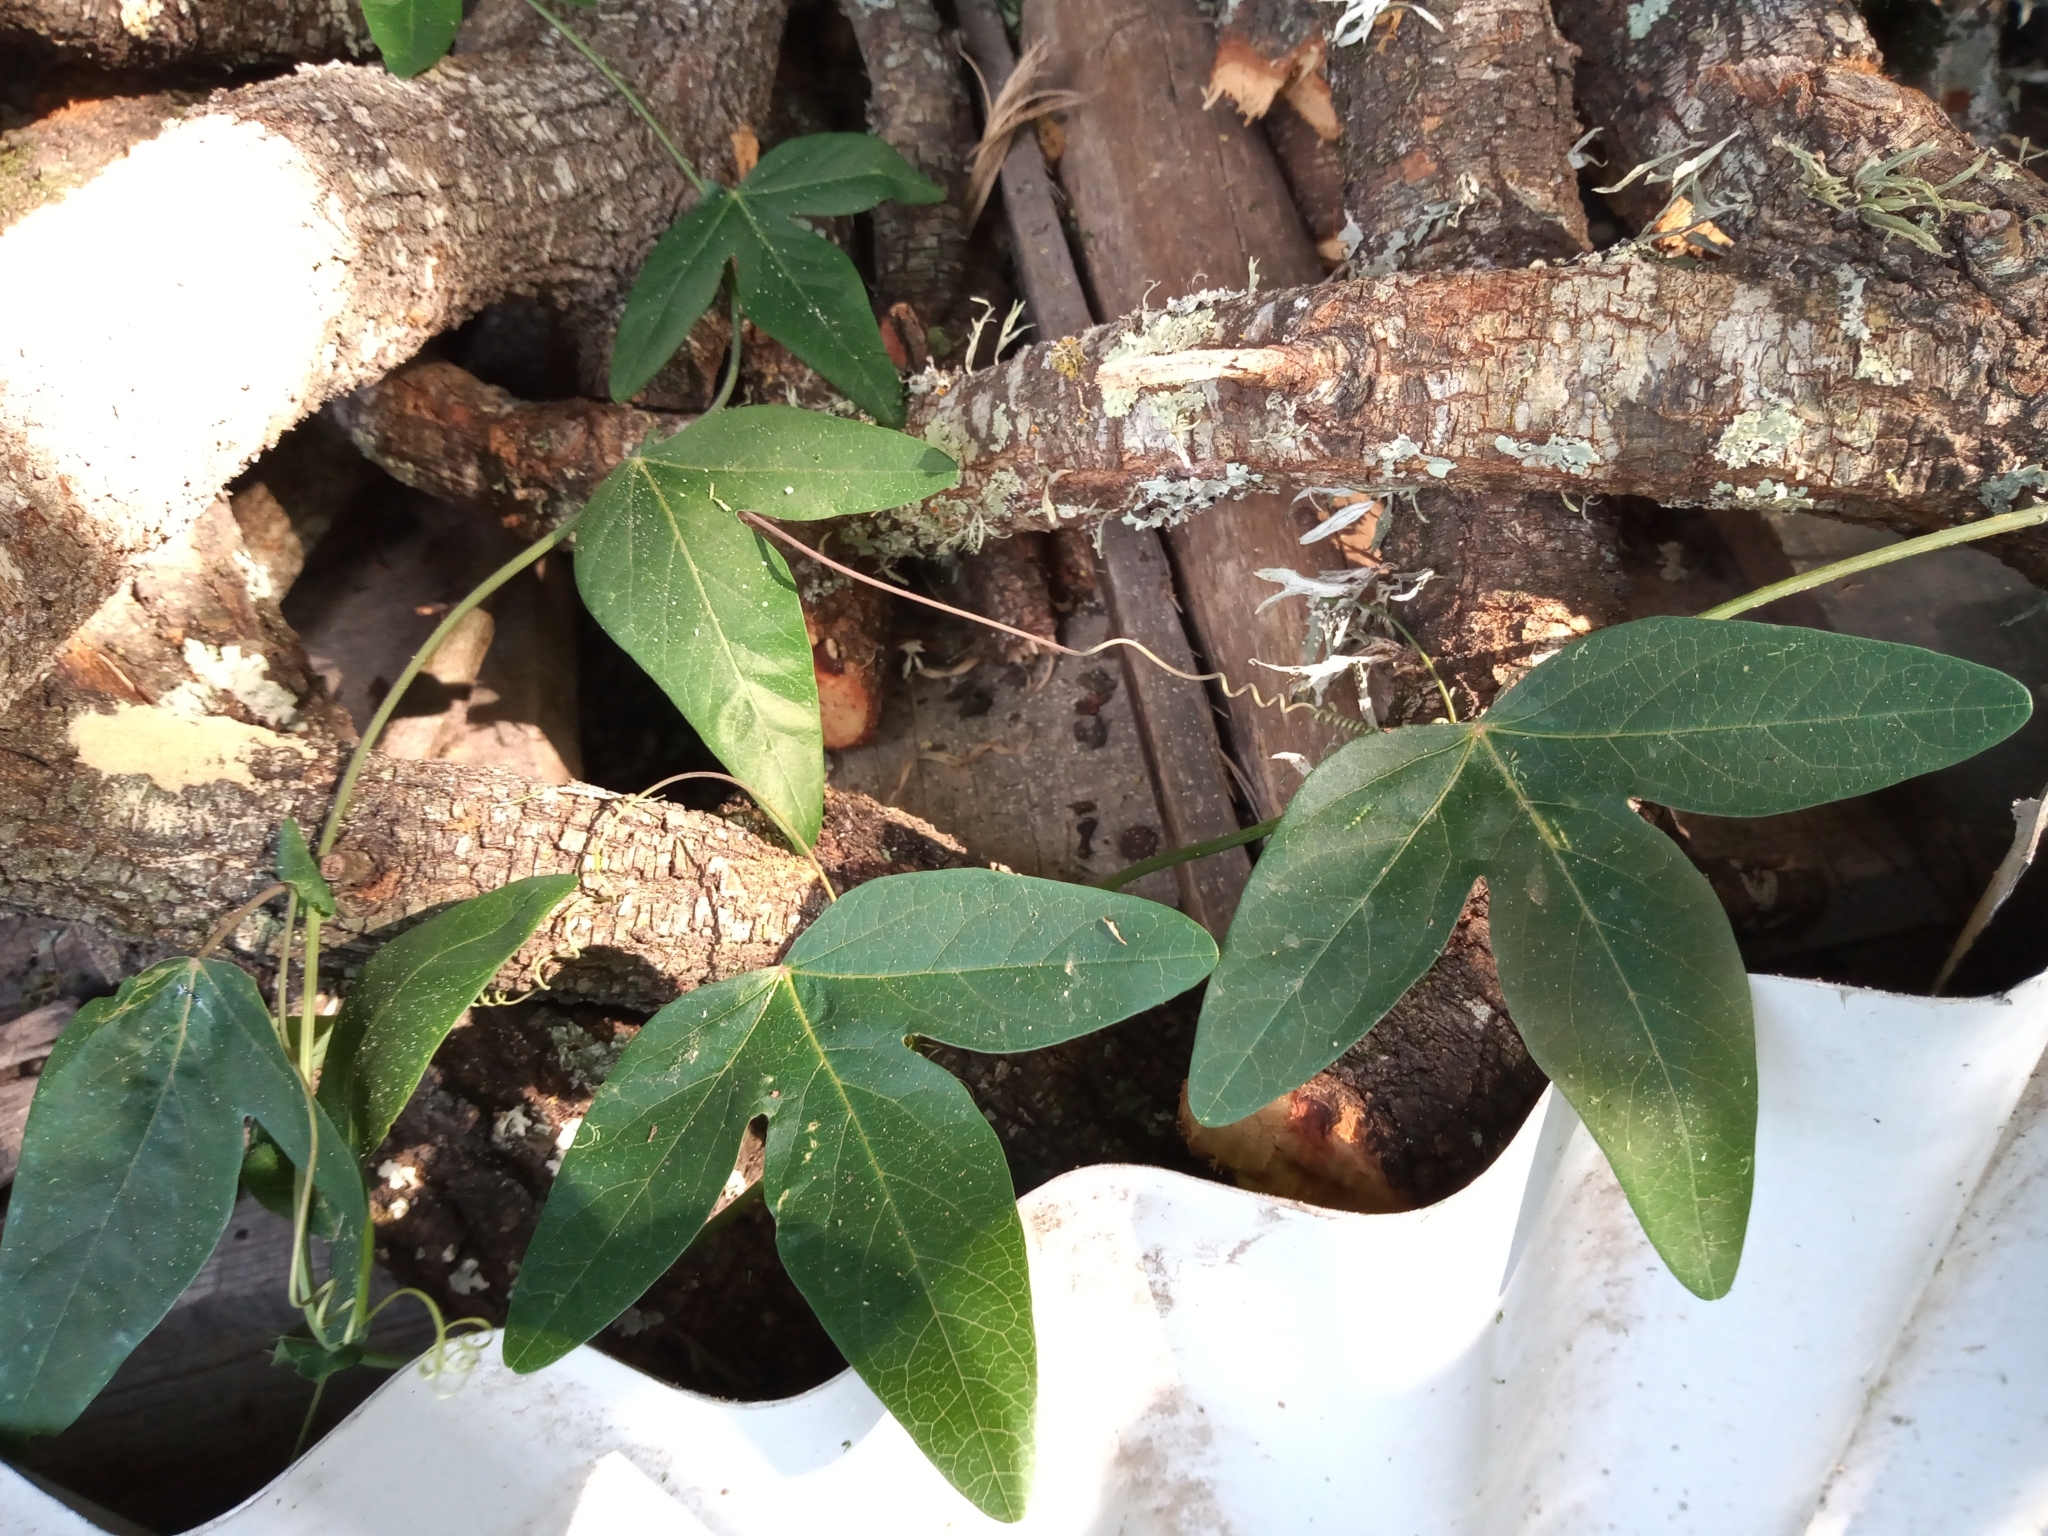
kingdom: Plantae
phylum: Tracheophyta
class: Magnoliopsida
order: Malpighiales
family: Passifloraceae
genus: Passiflora
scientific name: Passiflora caerulea
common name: Blue passionflower
